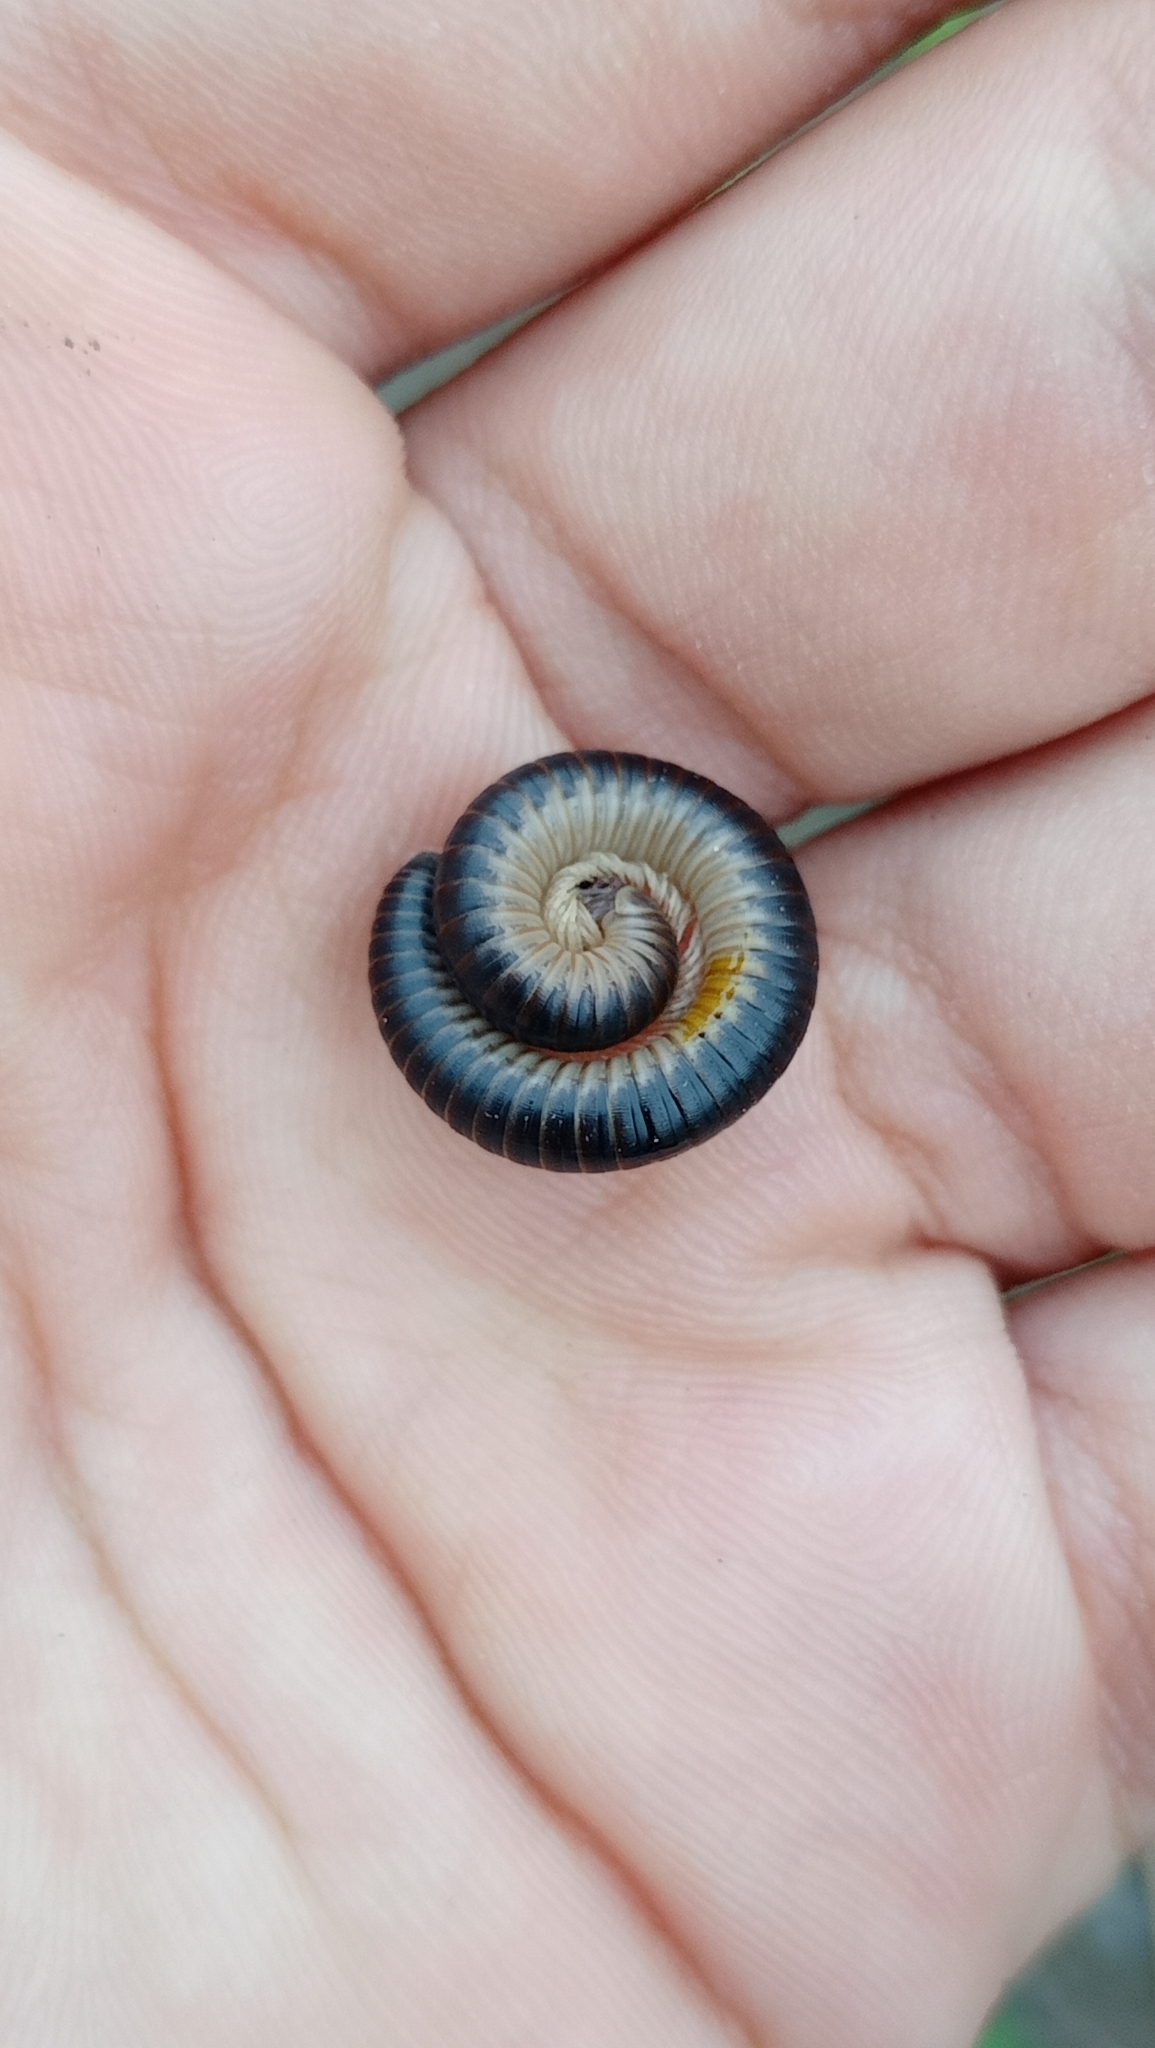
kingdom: Animalia
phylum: Arthropoda
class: Diplopoda
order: Julida
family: Julidae
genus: Pachyiulus
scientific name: Pachyiulus flavipes
